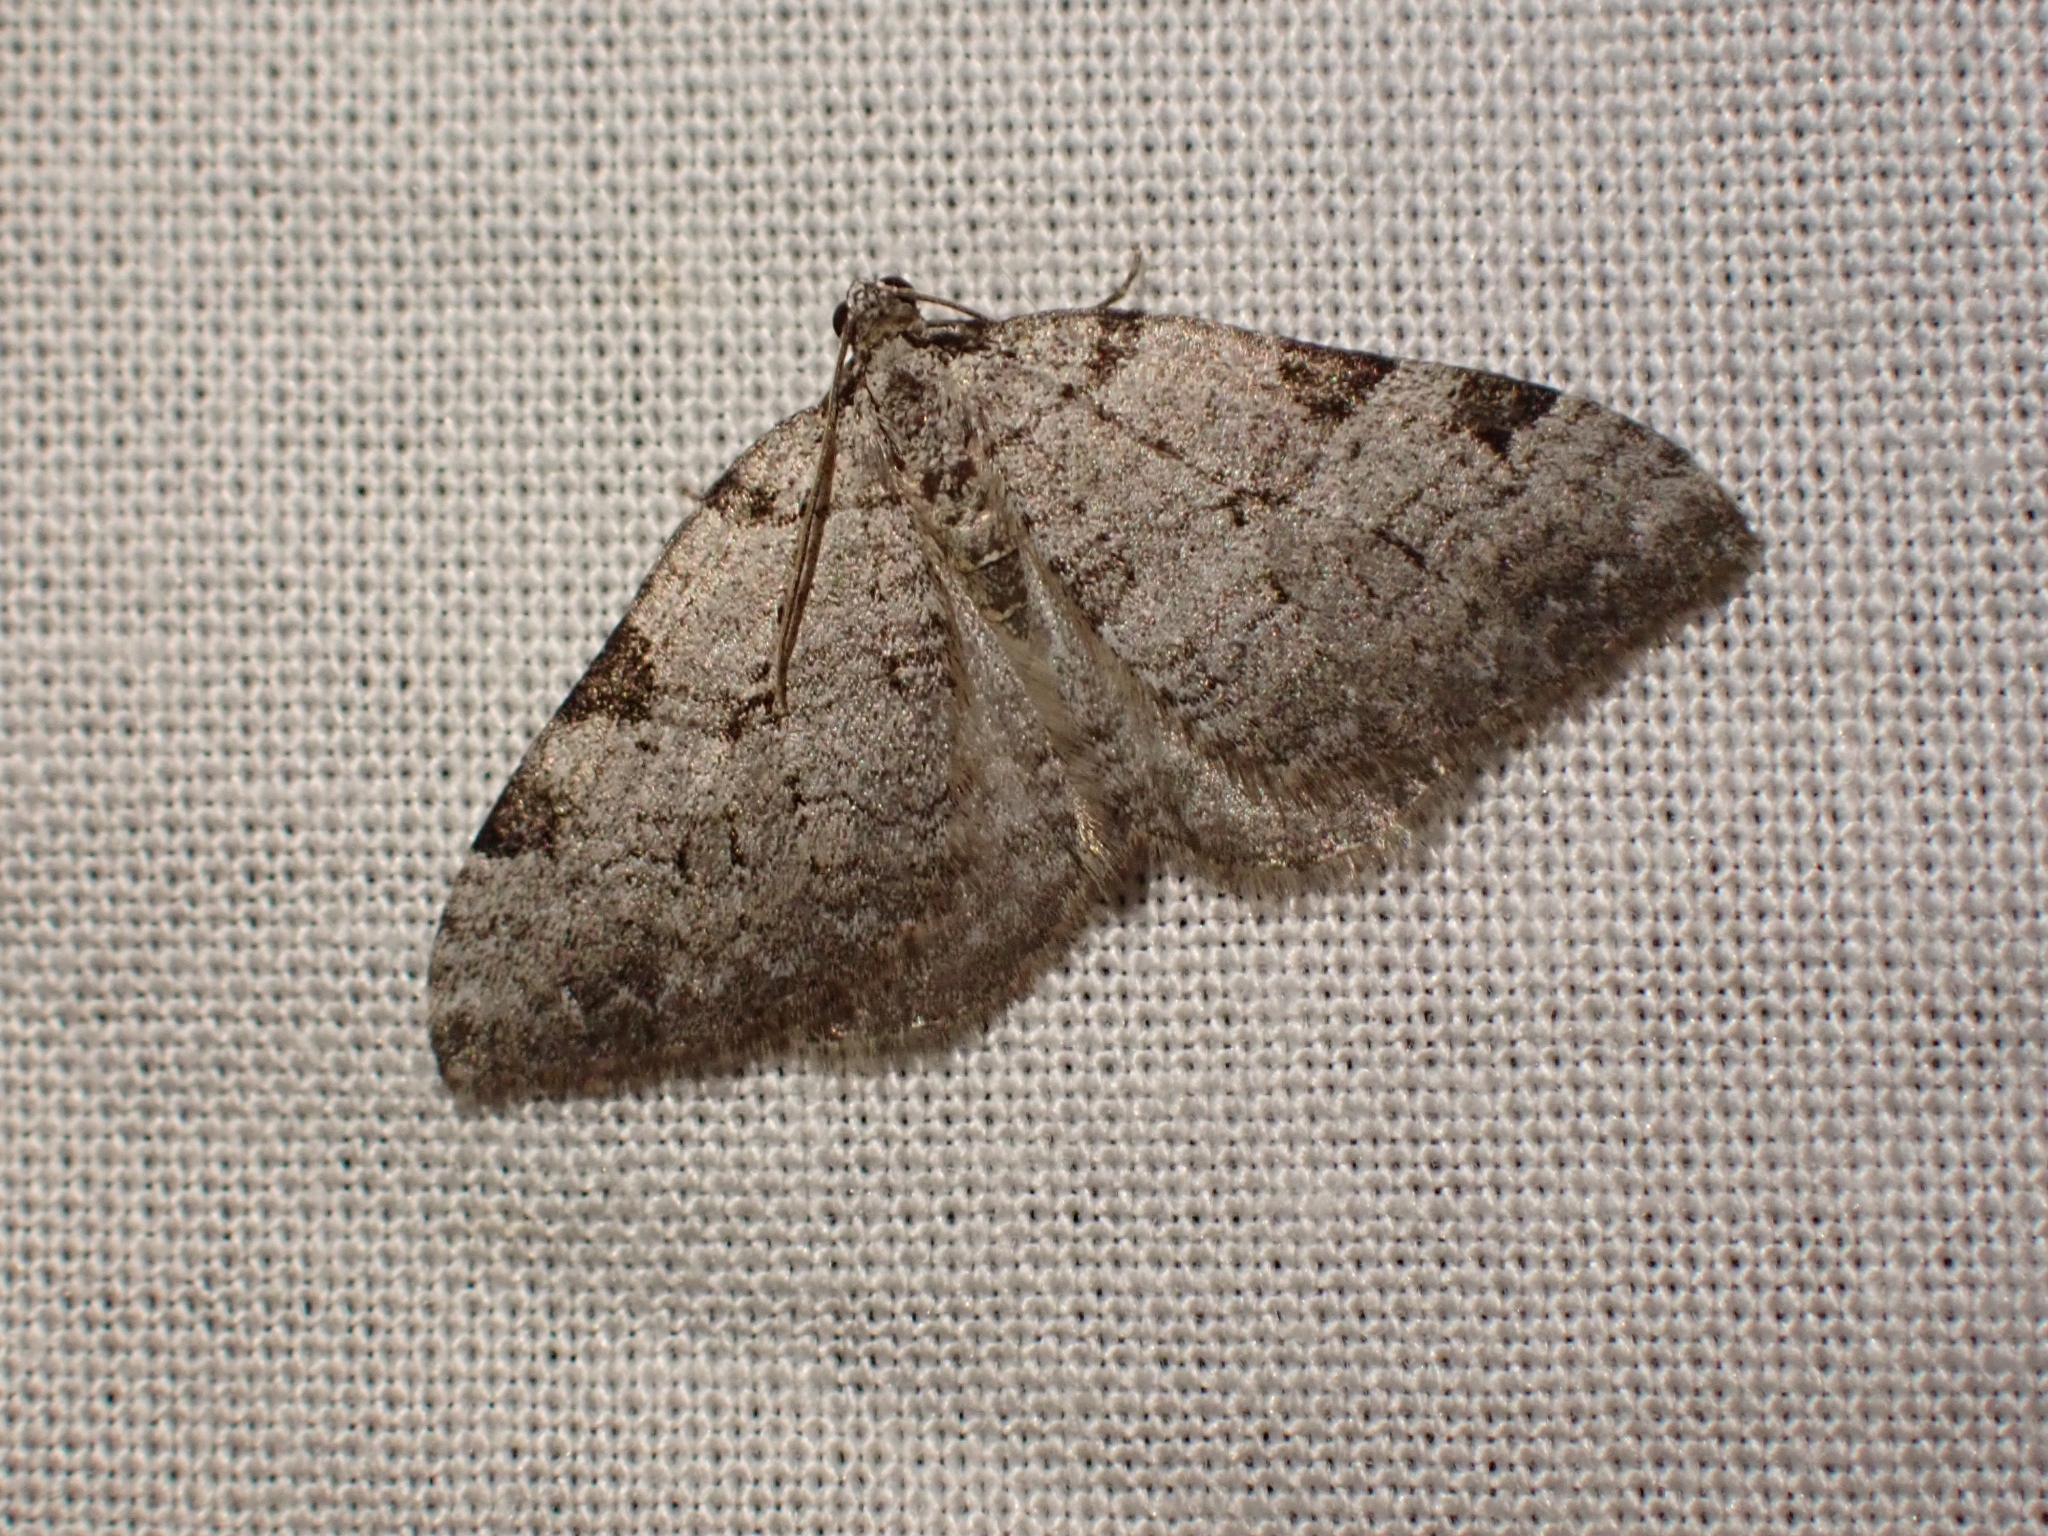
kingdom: Animalia
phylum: Arthropoda
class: Insecta
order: Lepidoptera
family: Geometridae
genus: Perizoma
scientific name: Perizoma costiguttata
